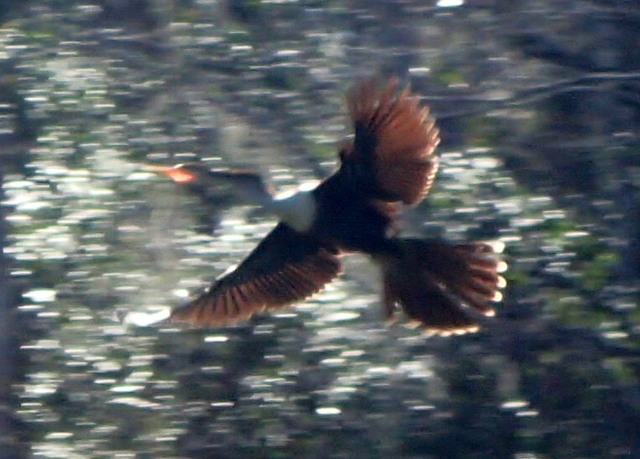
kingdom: Animalia
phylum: Chordata
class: Aves
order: Suliformes
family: Anhingidae
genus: Anhinga
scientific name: Anhinga anhinga
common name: Anhinga
